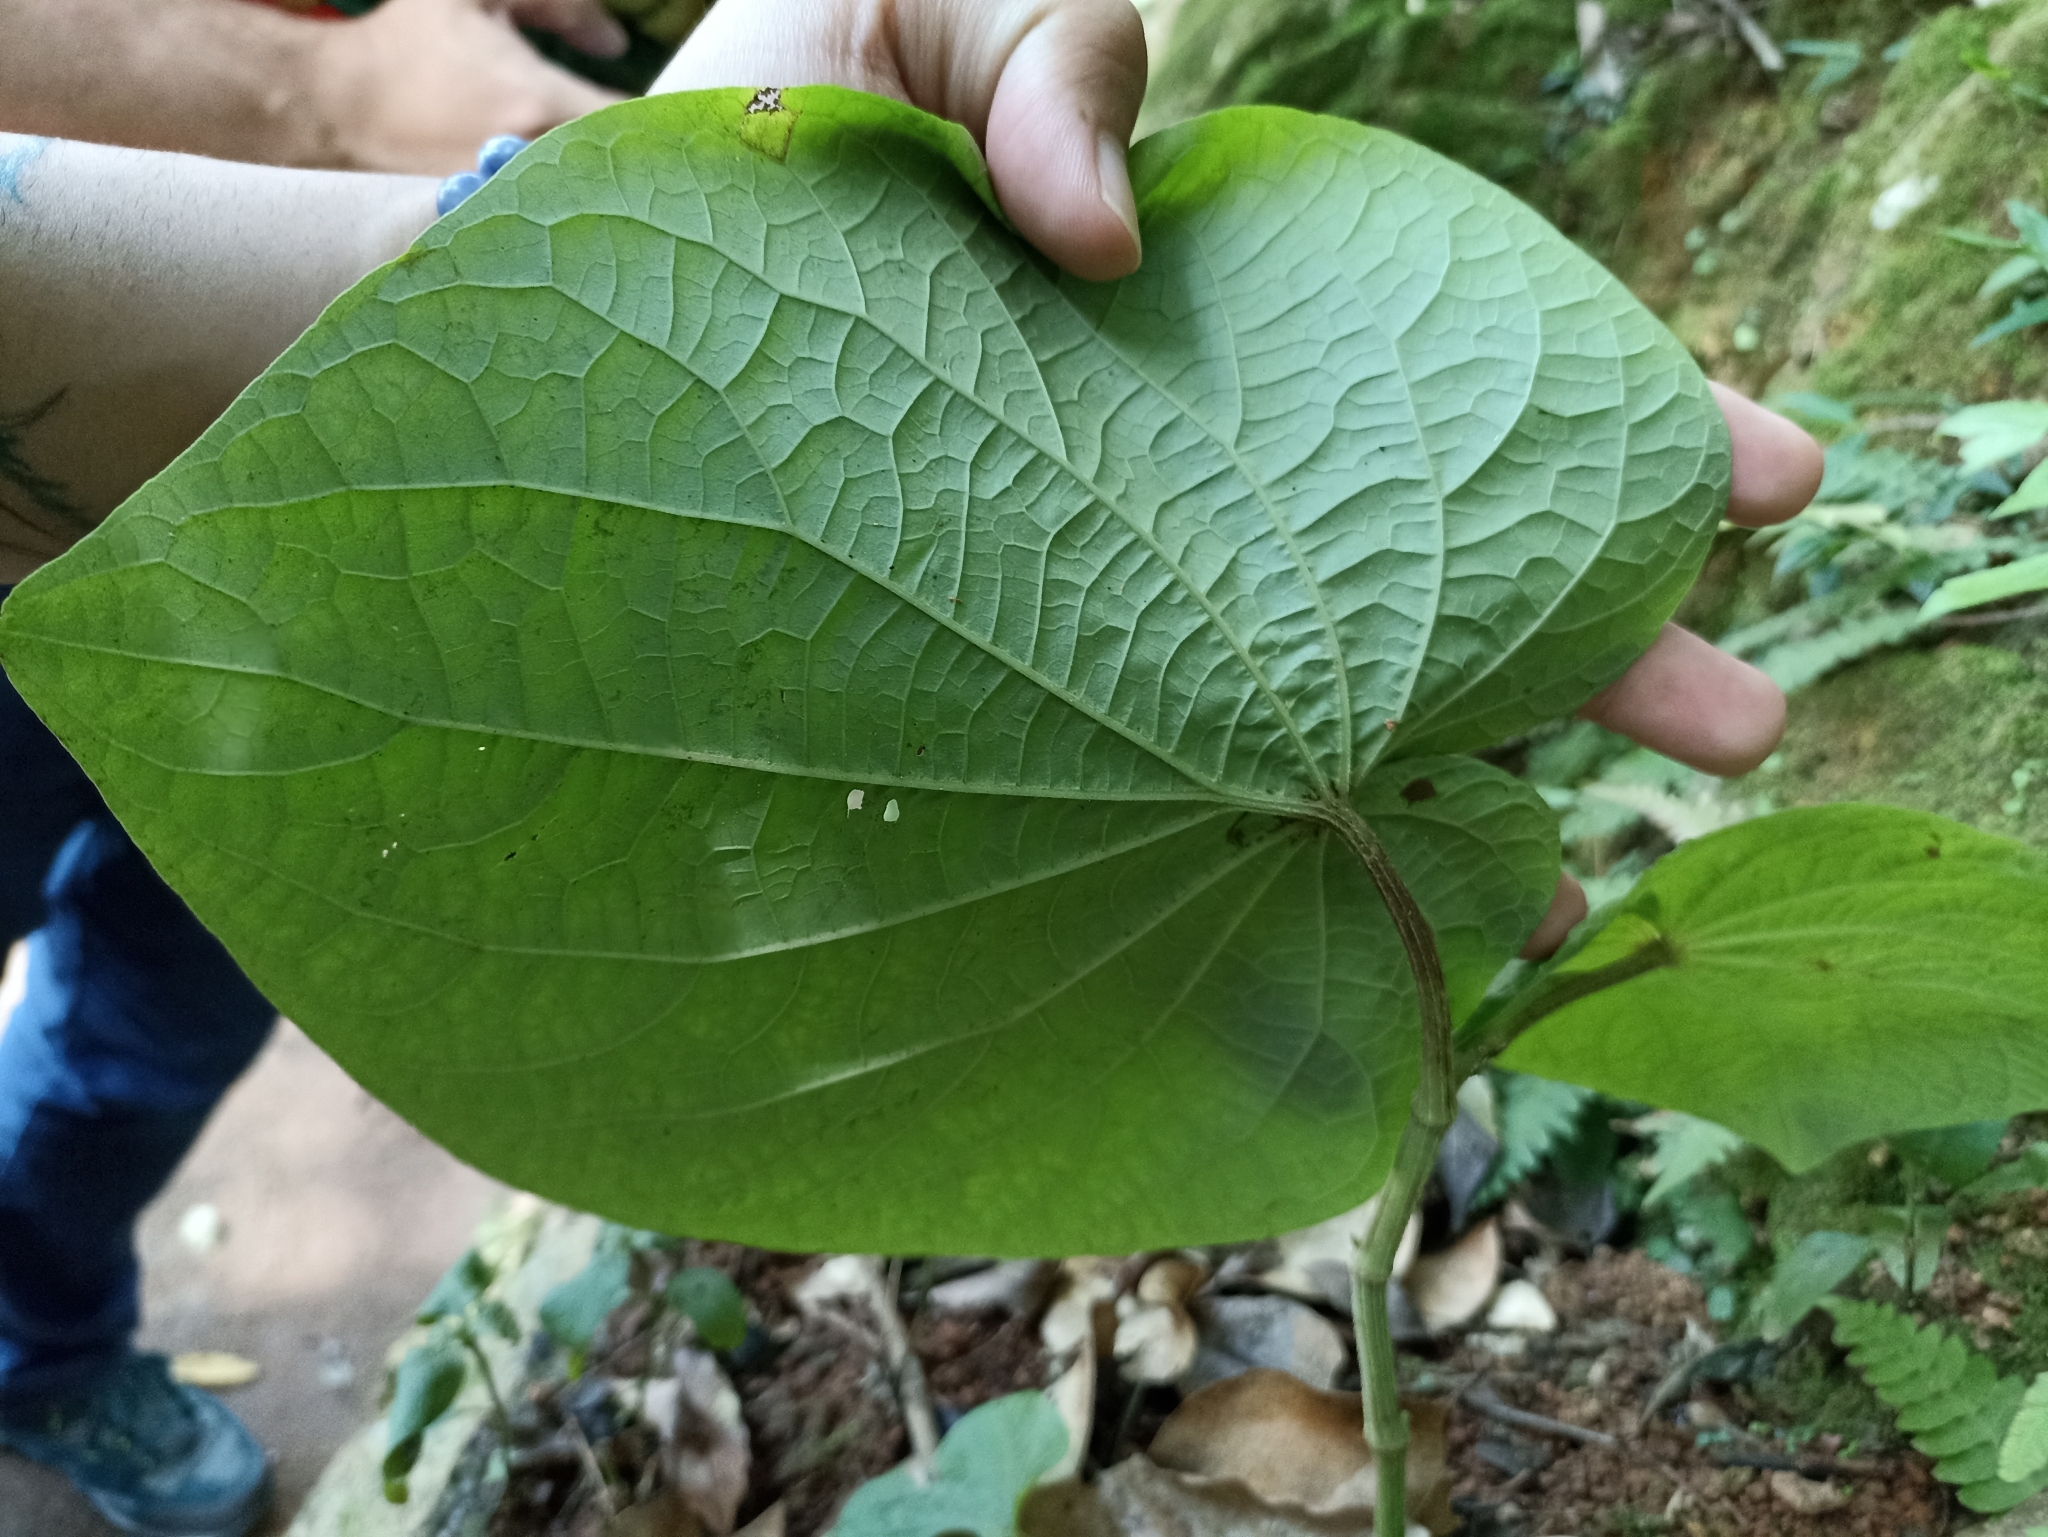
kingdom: Plantae
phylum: Tracheophyta
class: Magnoliopsida
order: Piperales
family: Piperaceae
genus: Piper
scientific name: Piper umbellatum
